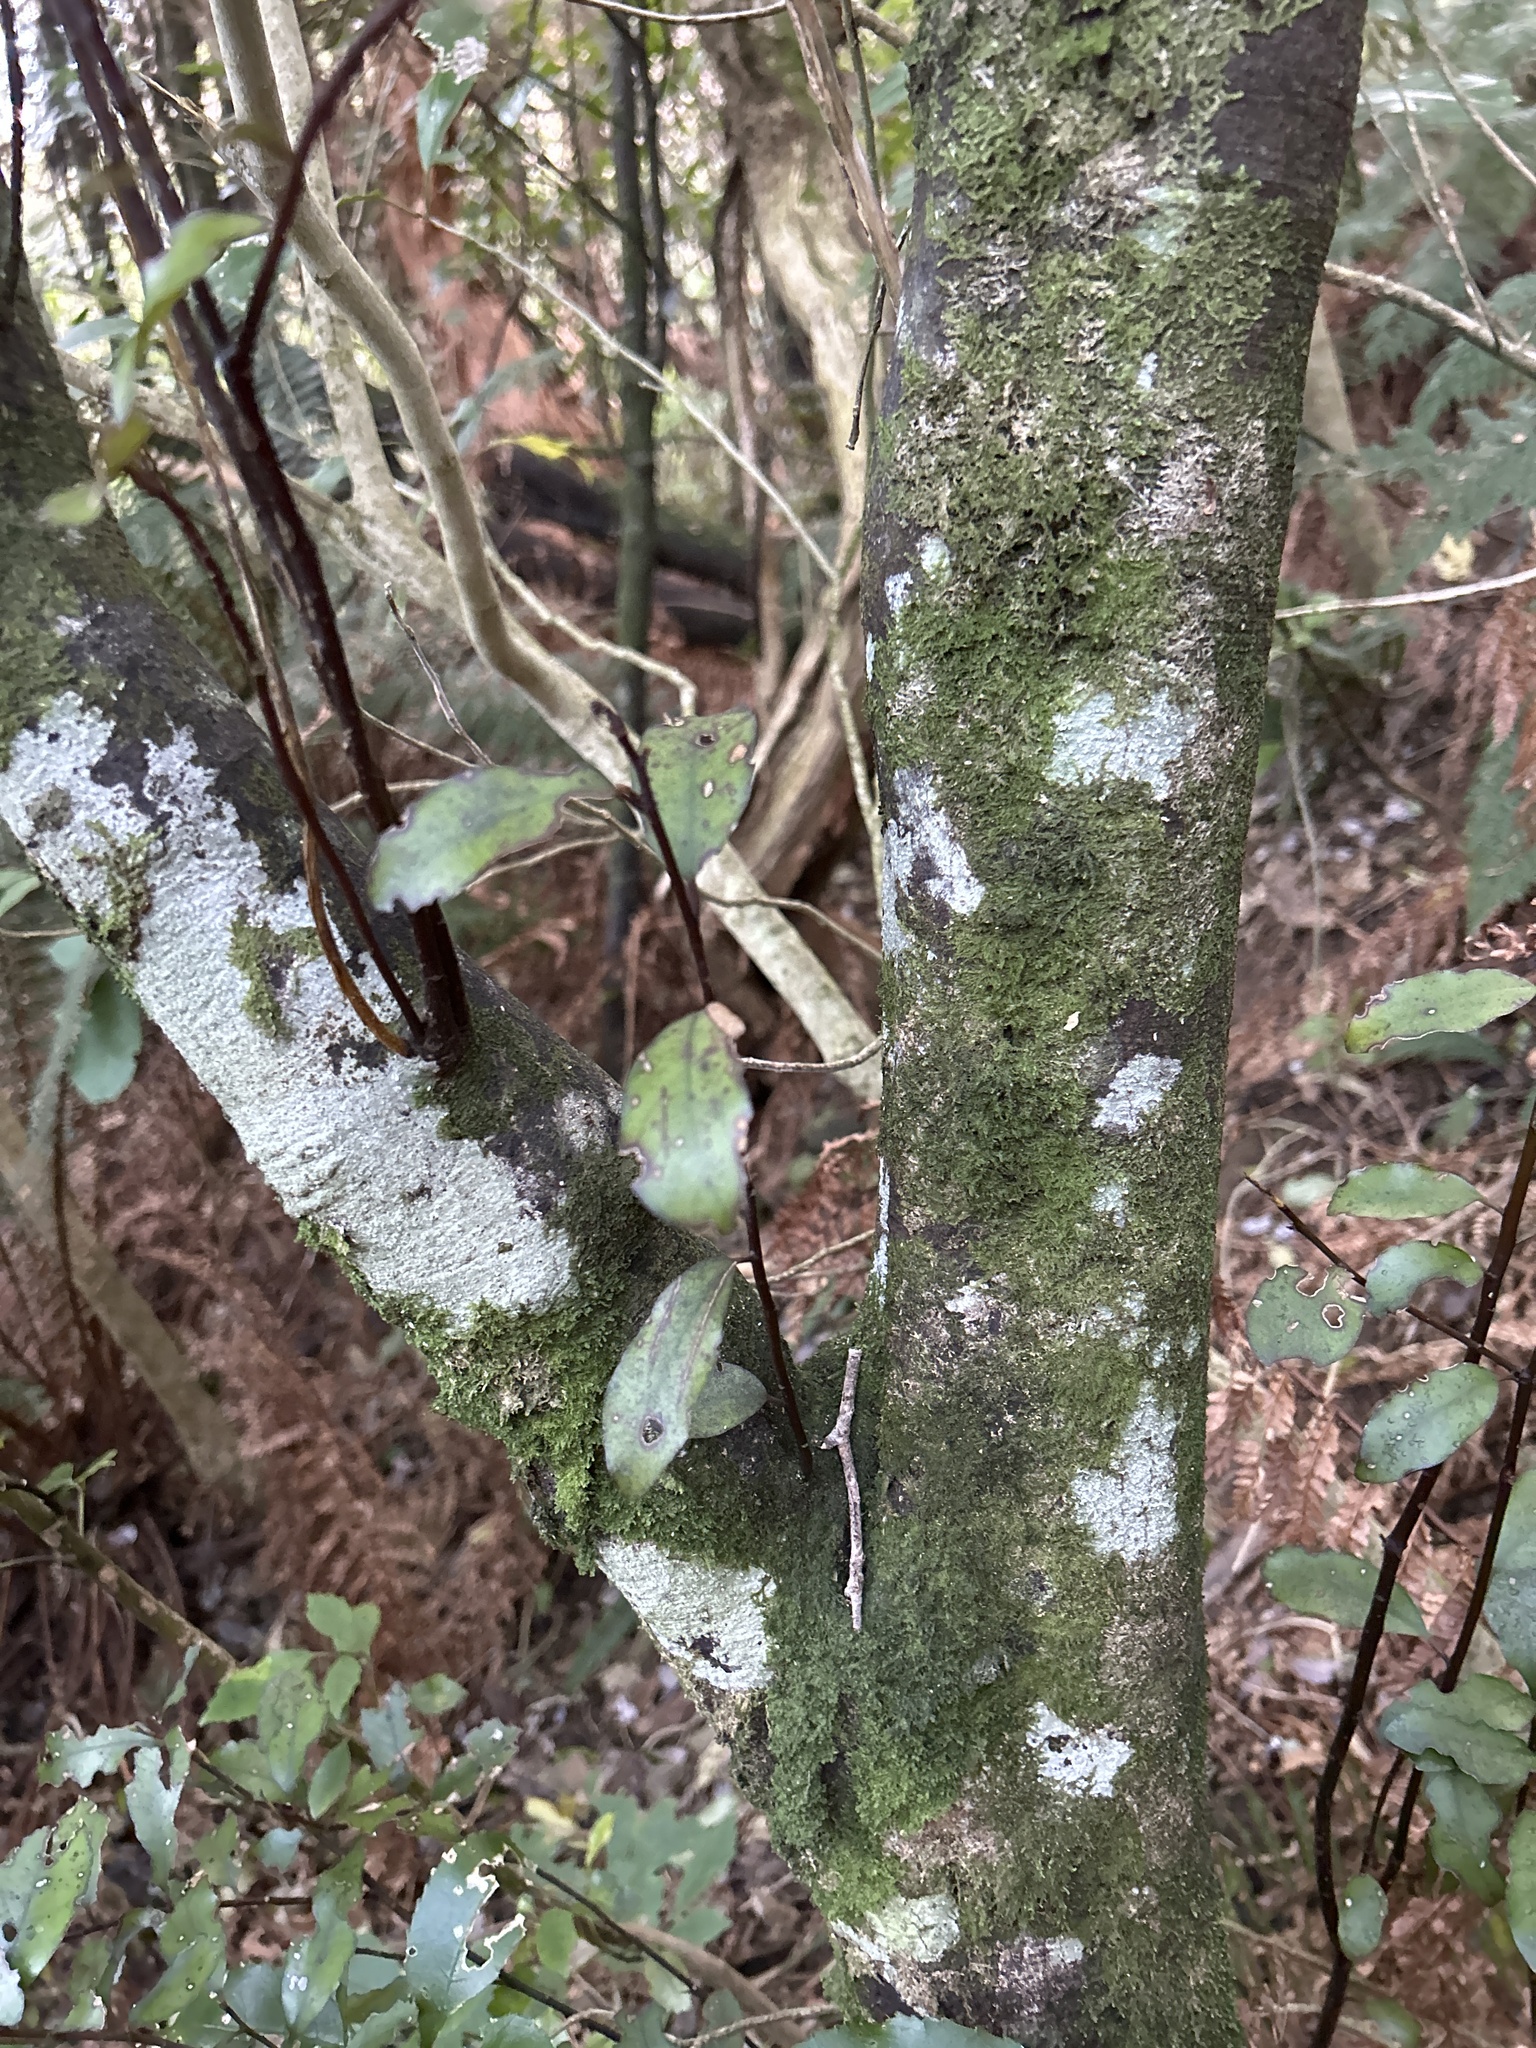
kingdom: Plantae
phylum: Tracheophyta
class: Magnoliopsida
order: Canellales
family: Winteraceae
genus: Pseudowintera
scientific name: Pseudowintera colorata
